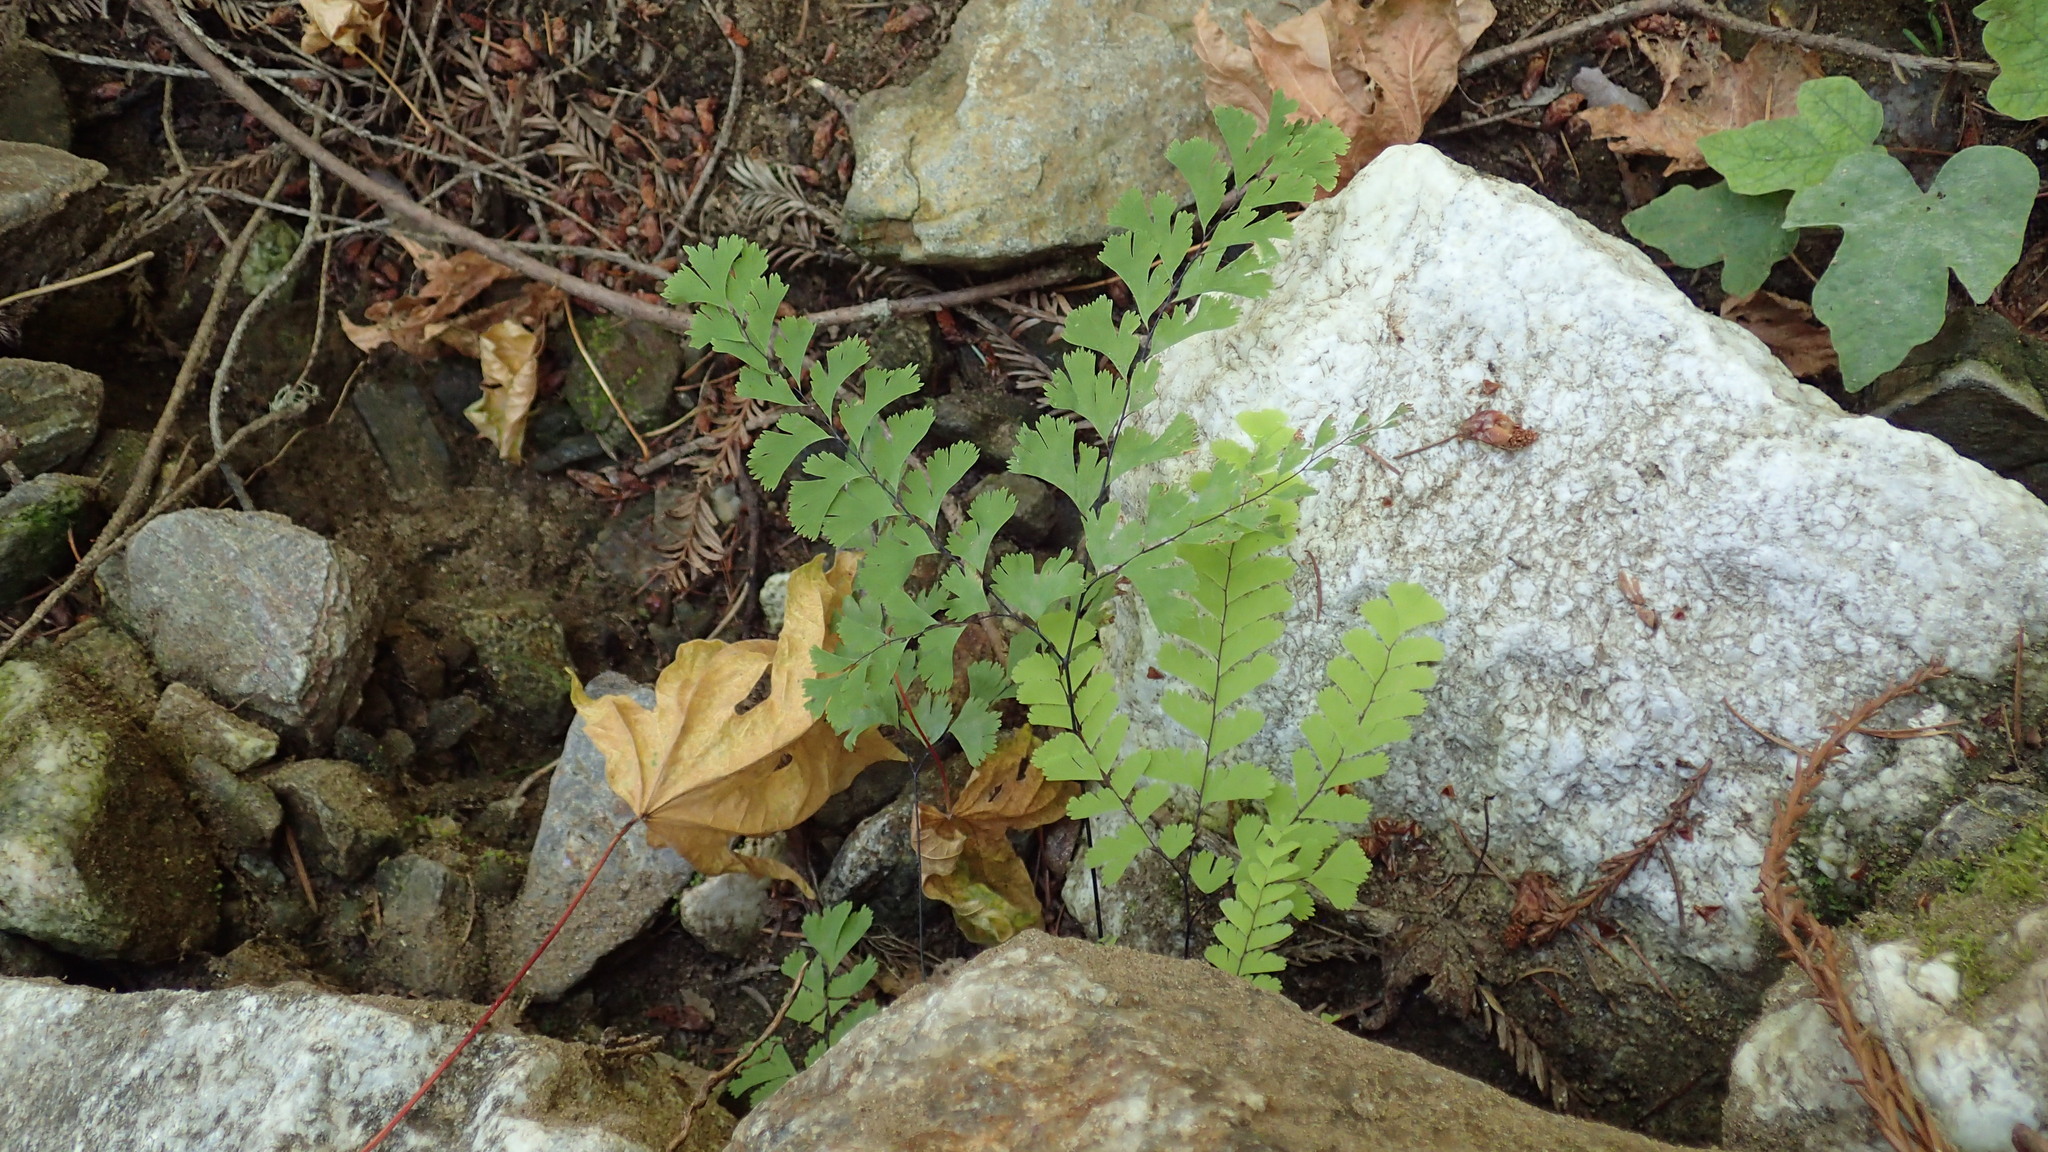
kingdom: Plantae
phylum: Tracheophyta
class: Polypodiopsida
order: Polypodiales
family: Pteridaceae
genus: Adiantum
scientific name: Adiantum aleuticum
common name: Aleutian maidenhair fern
